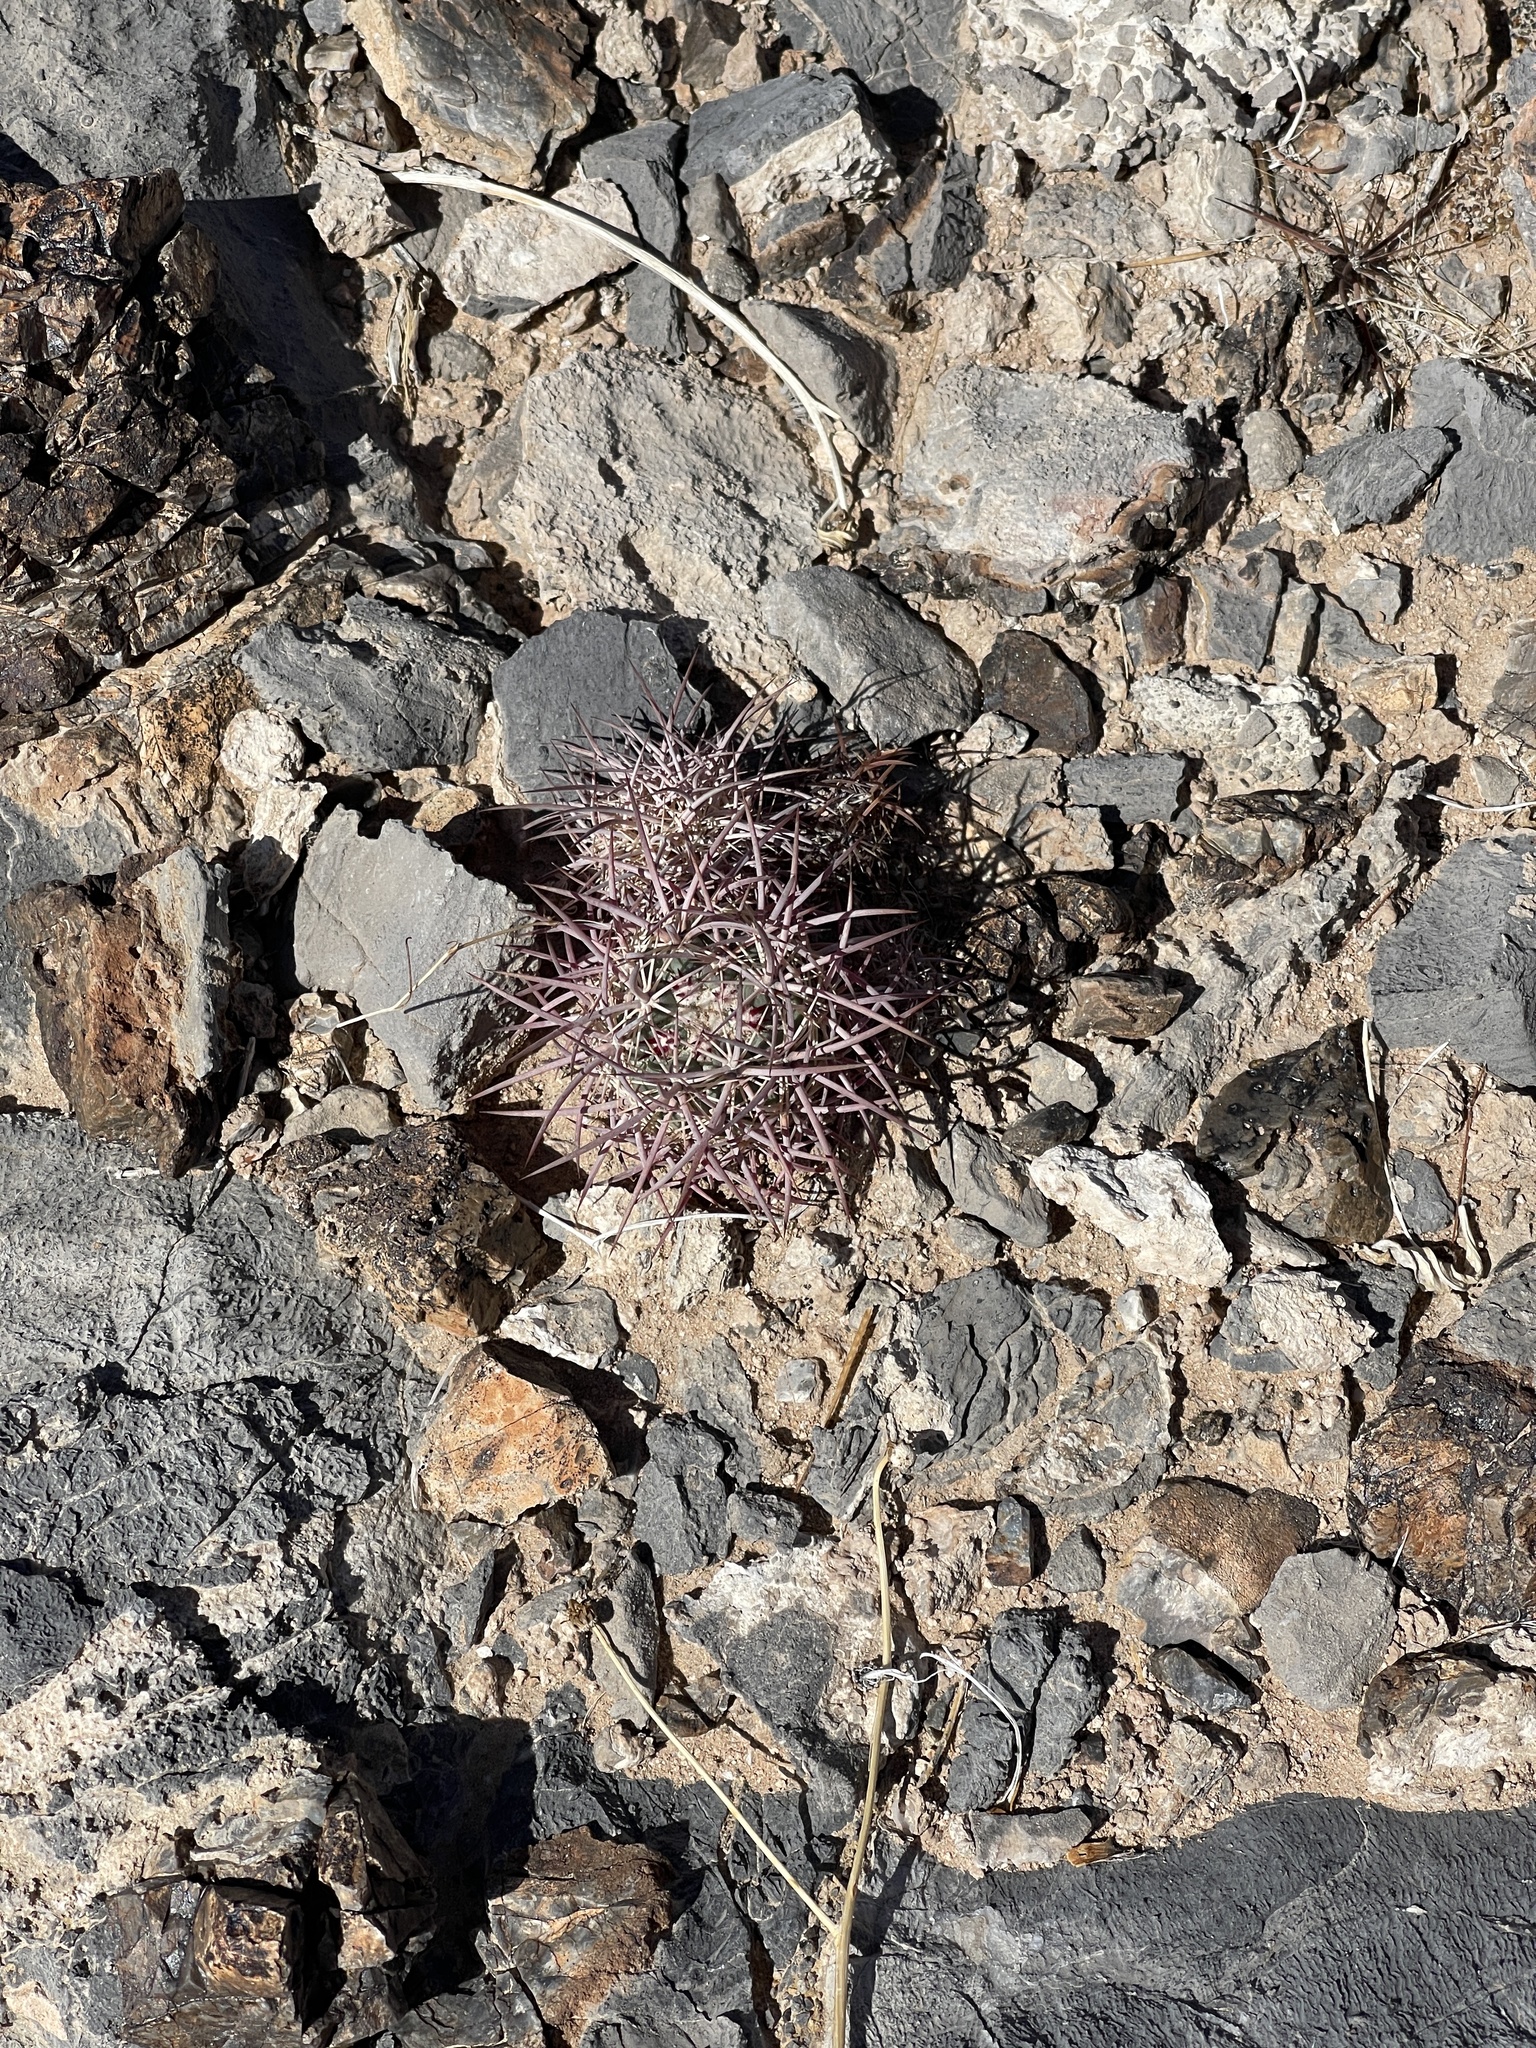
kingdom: Plantae
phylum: Tracheophyta
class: Magnoliopsida
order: Caryophyllales
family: Cactaceae
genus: Sclerocactus
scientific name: Sclerocactus johnsonii
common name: Eight-spine fishhook cactus
